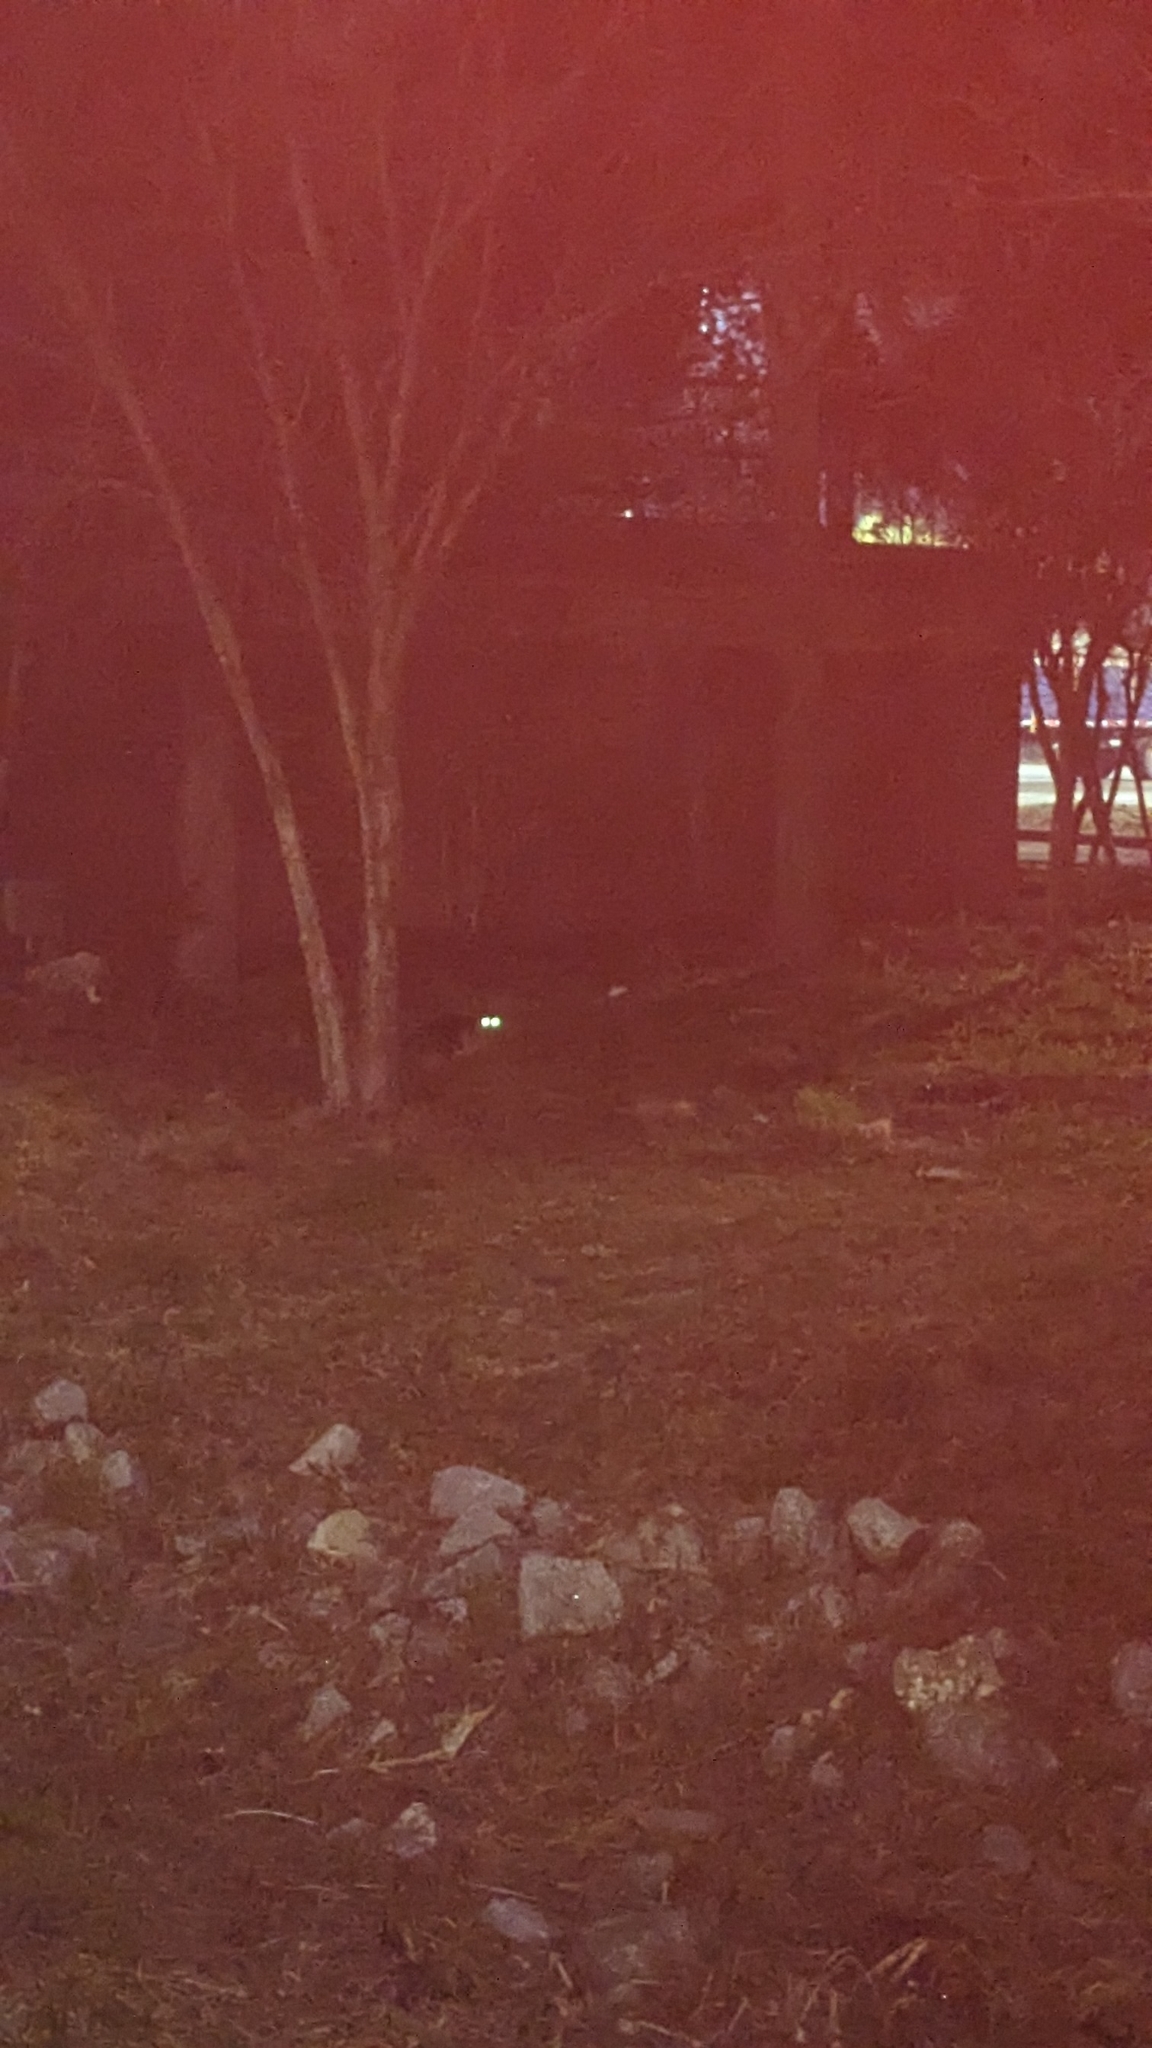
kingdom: Animalia
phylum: Chordata
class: Mammalia
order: Carnivora
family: Felidae
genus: Felis
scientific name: Felis catus
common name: Domestic cat
